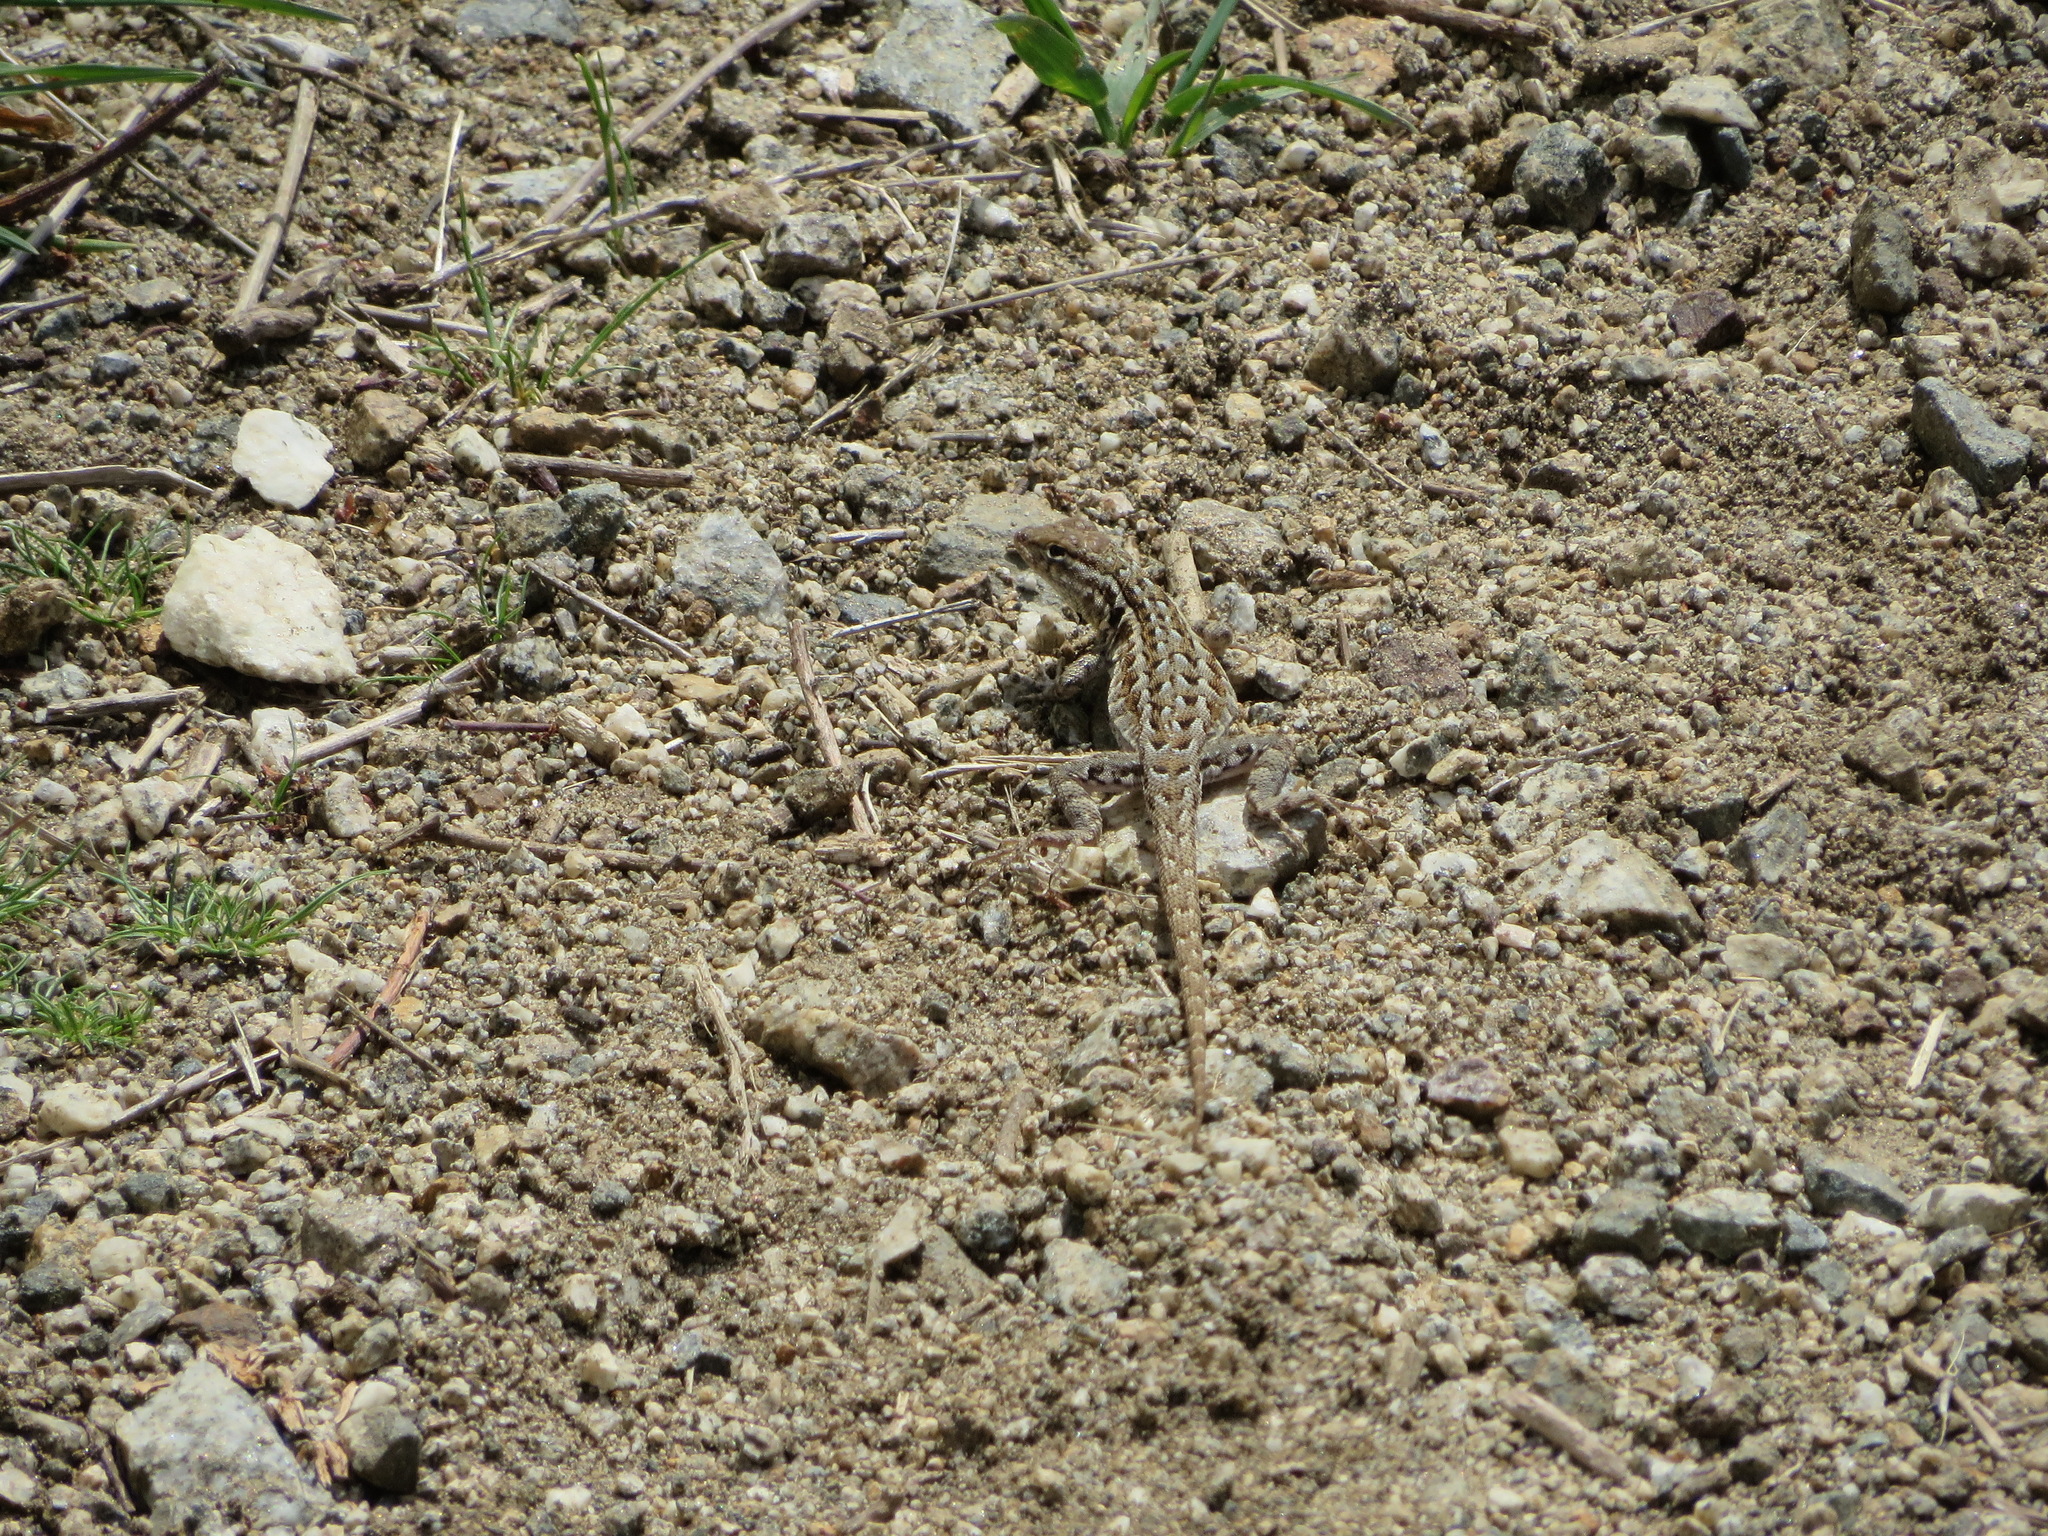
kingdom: Animalia
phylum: Chordata
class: Squamata
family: Phrynosomatidae
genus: Uta
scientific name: Uta stansburiana
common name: Side-blotched lizard
